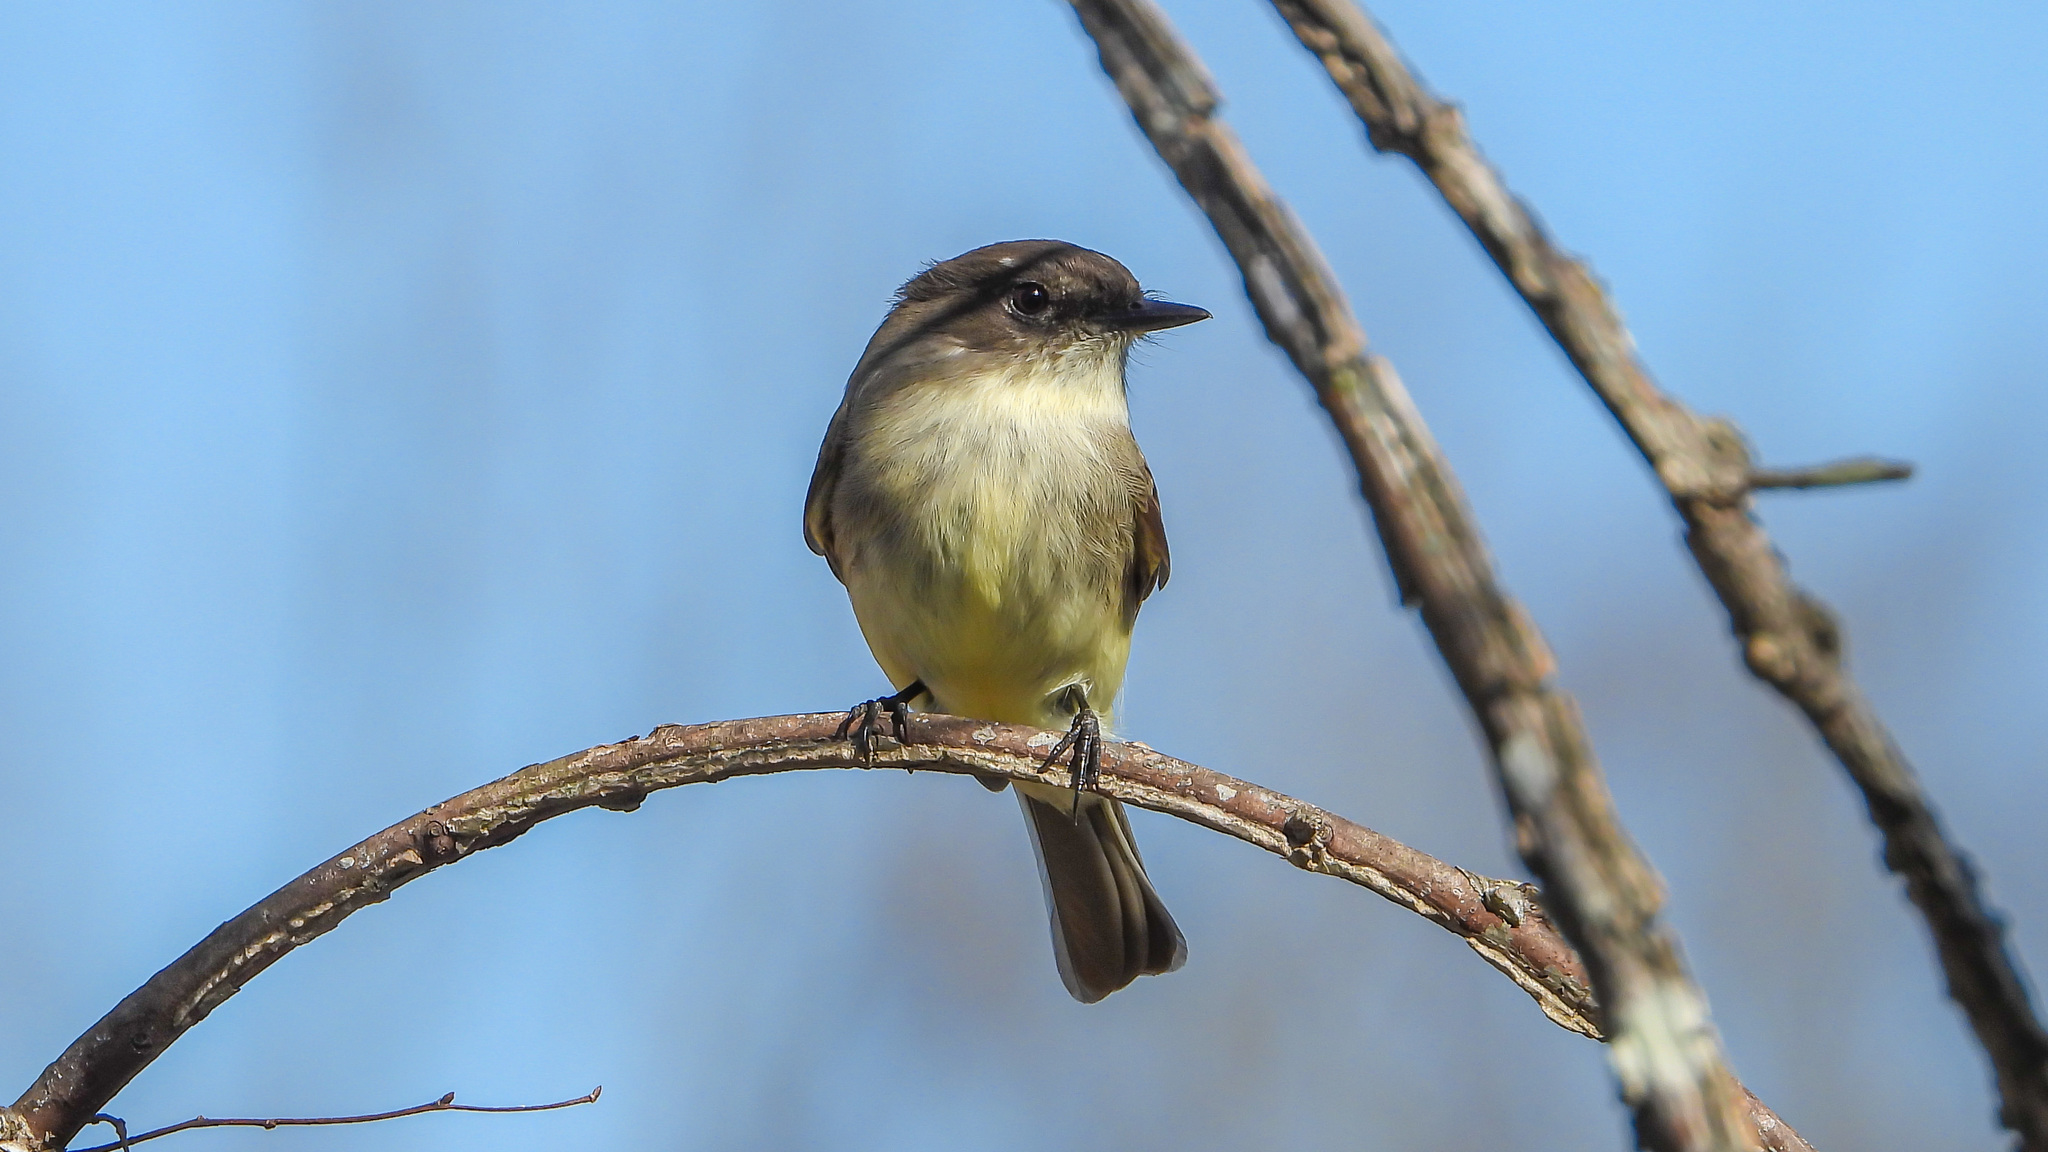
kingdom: Animalia
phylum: Chordata
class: Aves
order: Passeriformes
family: Tyrannidae
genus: Sayornis
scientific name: Sayornis phoebe
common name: Eastern phoebe
